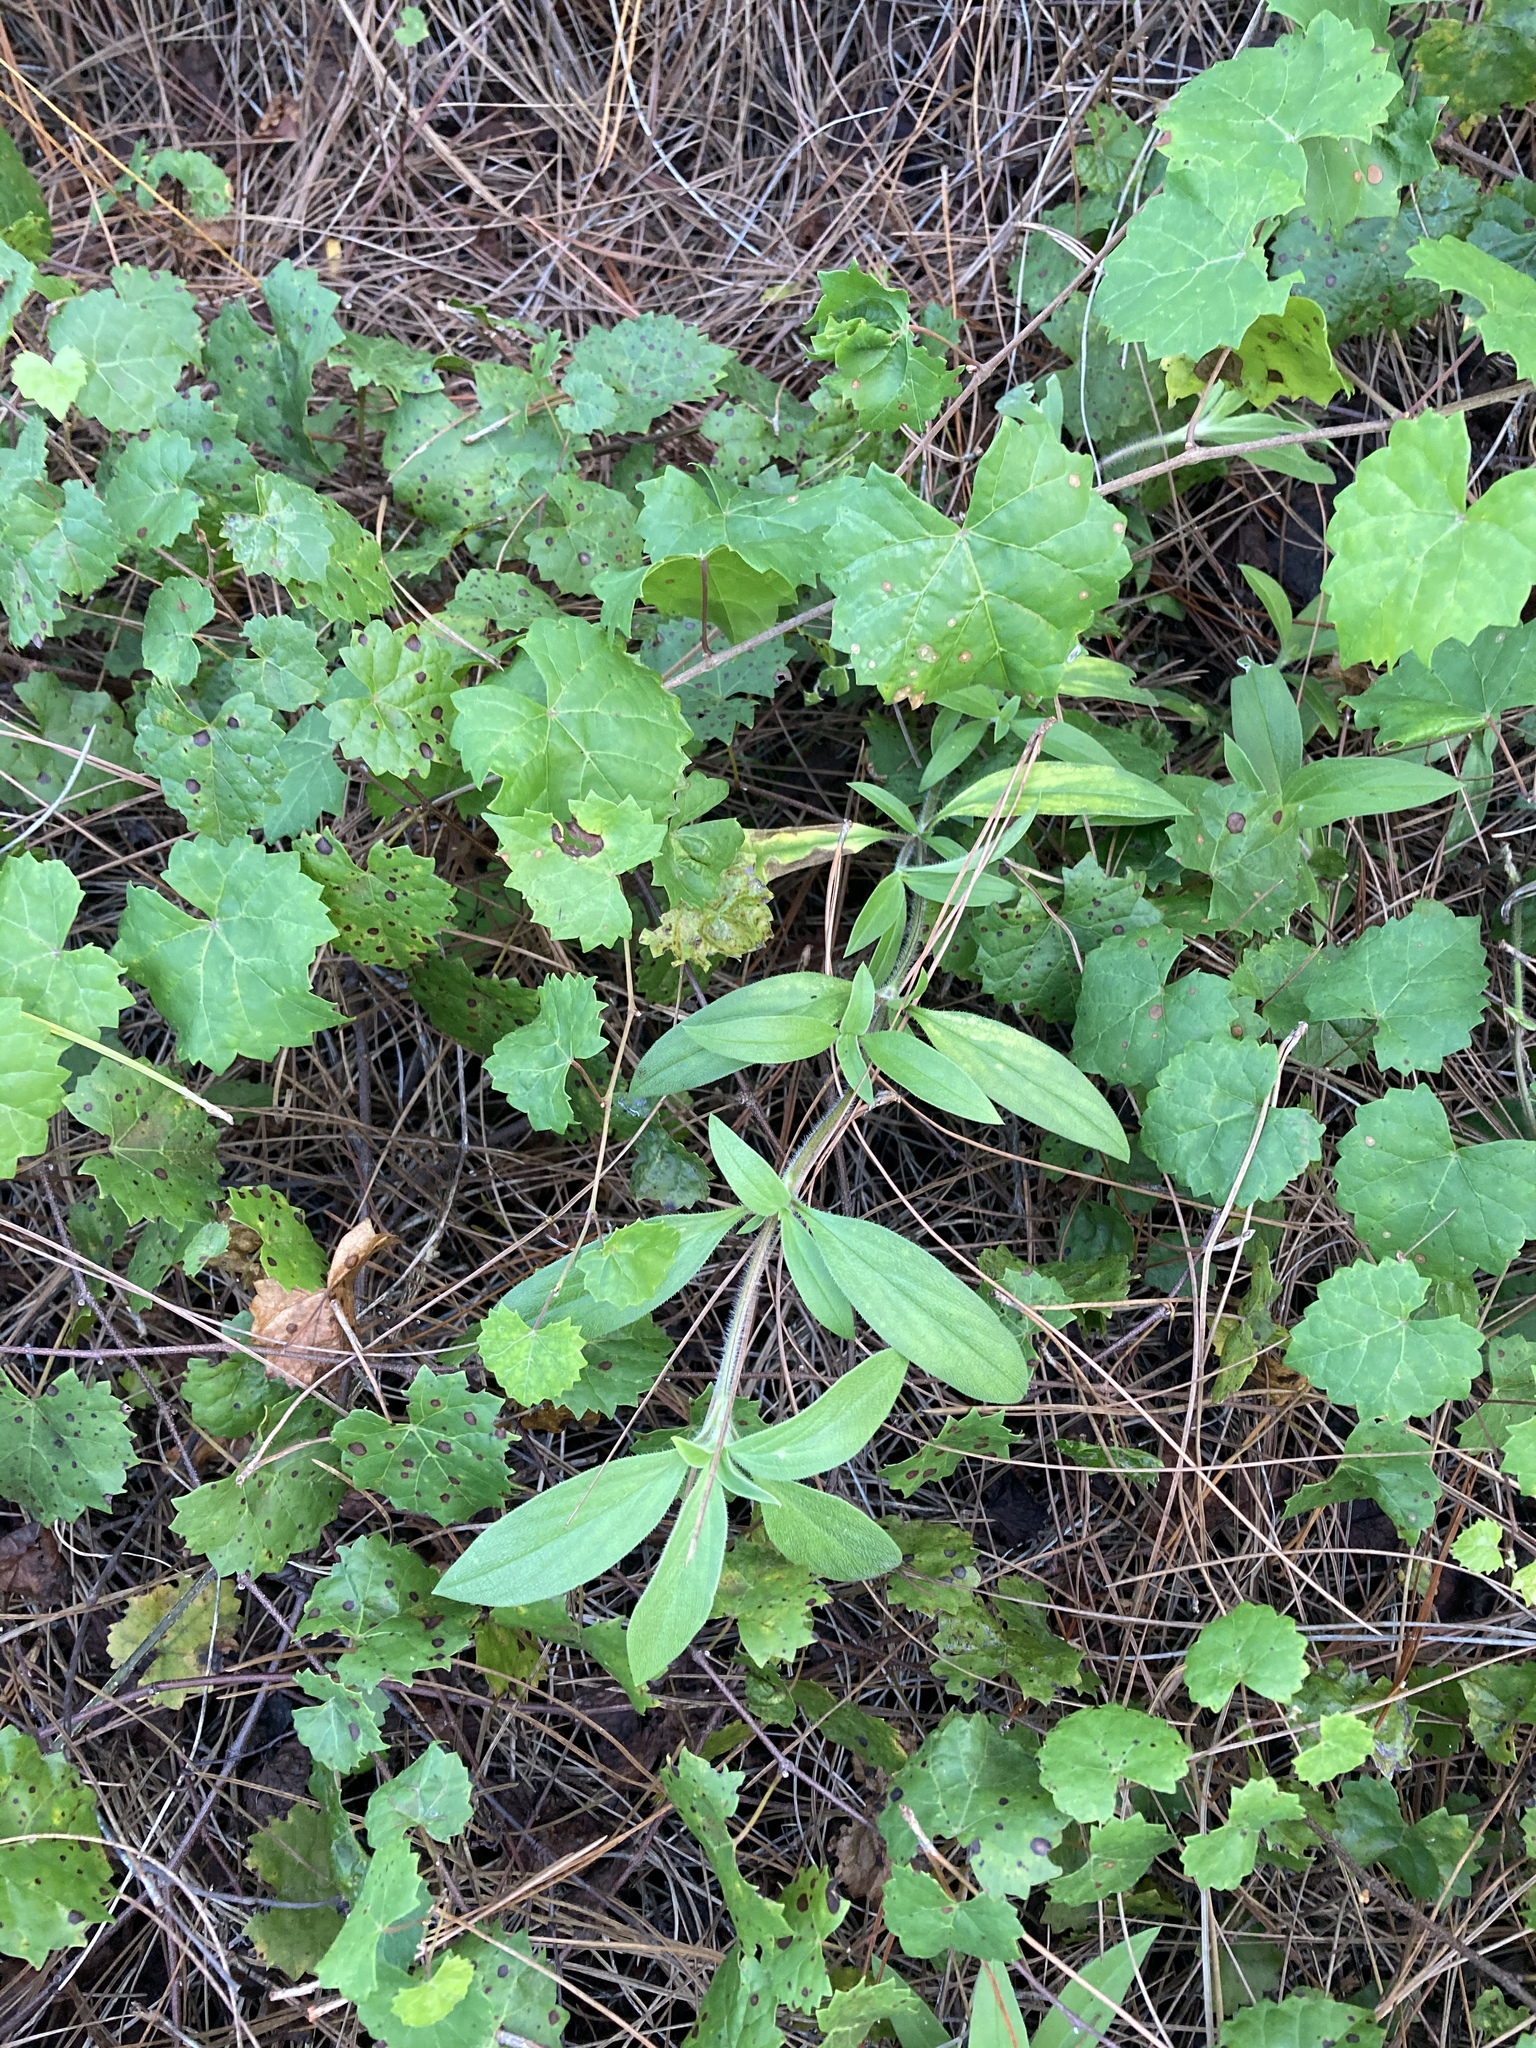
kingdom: Plantae
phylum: Tracheophyta
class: Magnoliopsida
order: Gentianales
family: Rubiaceae
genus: Richardia
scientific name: Richardia grandiflora
